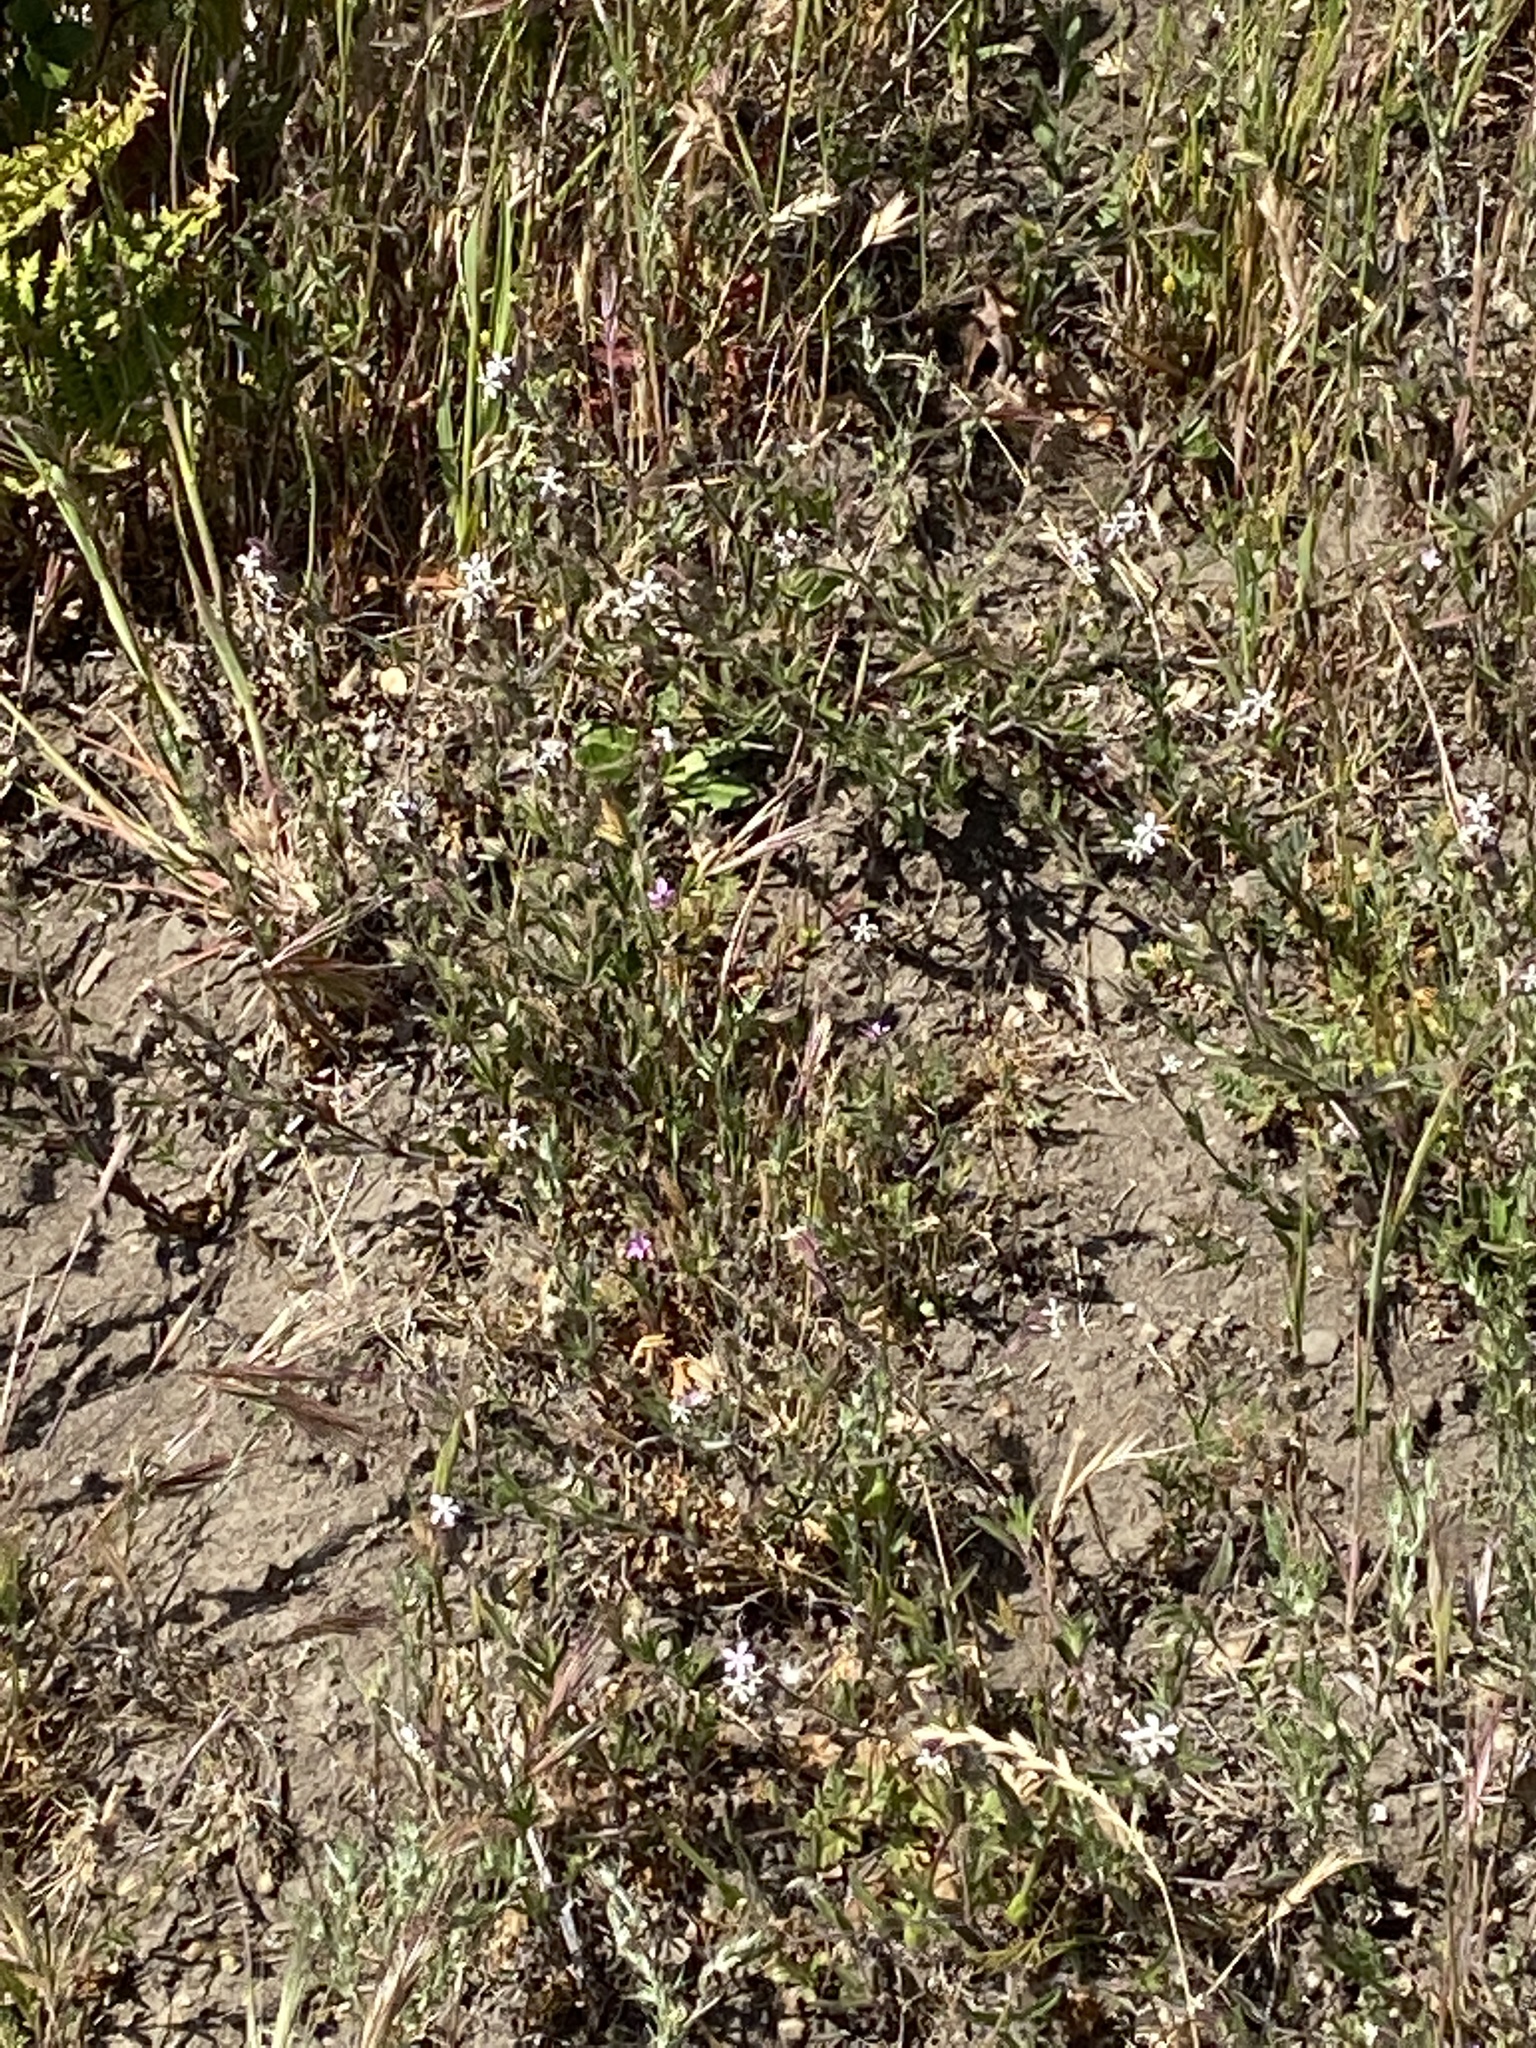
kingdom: Plantae
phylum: Tracheophyta
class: Magnoliopsida
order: Caryophyllales
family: Caryophyllaceae
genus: Silene
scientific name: Silene gallica
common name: Small-flowered catchfly
